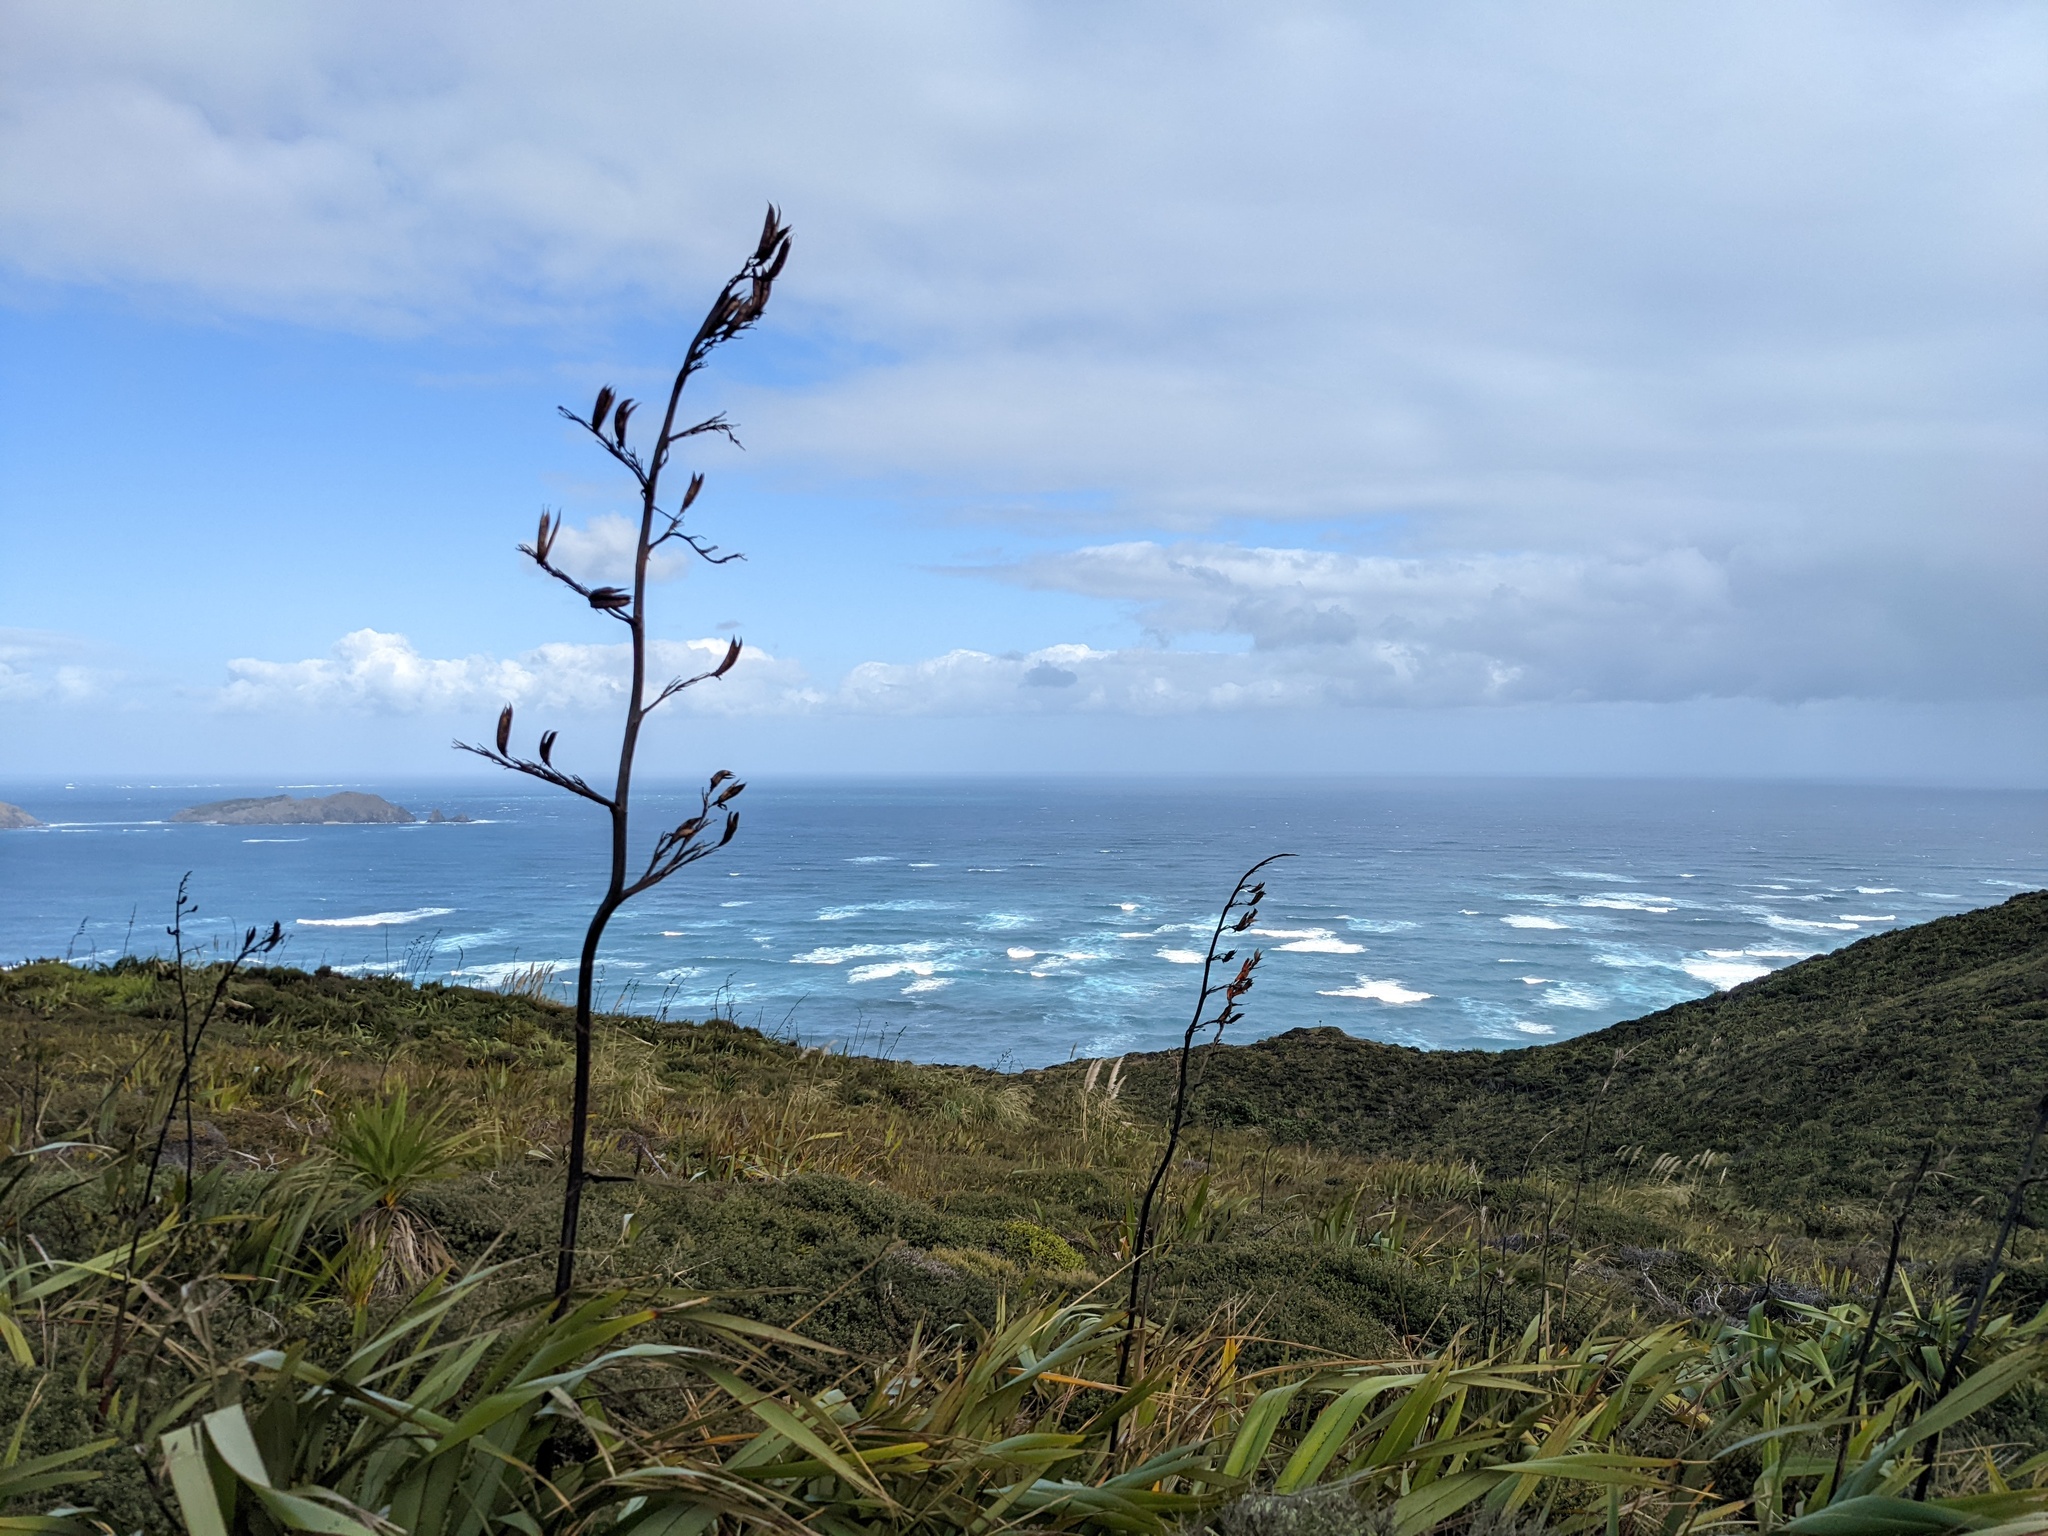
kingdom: Plantae
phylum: Tracheophyta
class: Liliopsida
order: Asparagales
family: Asphodelaceae
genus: Phormium
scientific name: Phormium tenax
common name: New zealand flax
